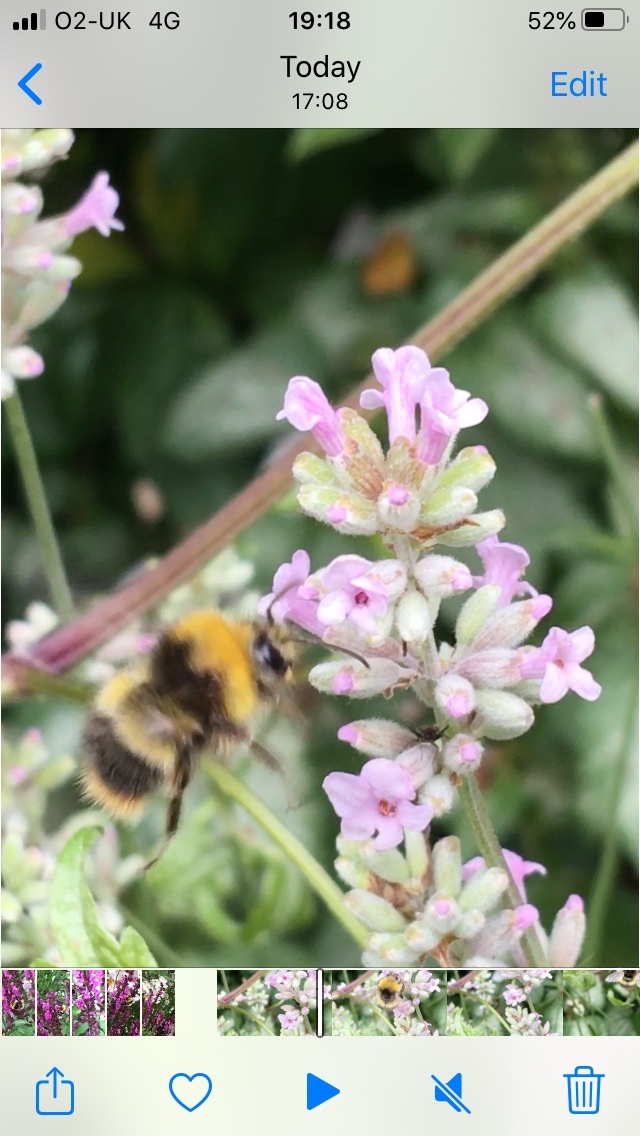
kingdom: Animalia
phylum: Arthropoda
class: Insecta
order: Hymenoptera
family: Apidae
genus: Bombus
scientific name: Bombus pratorum
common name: Early humble-bee
